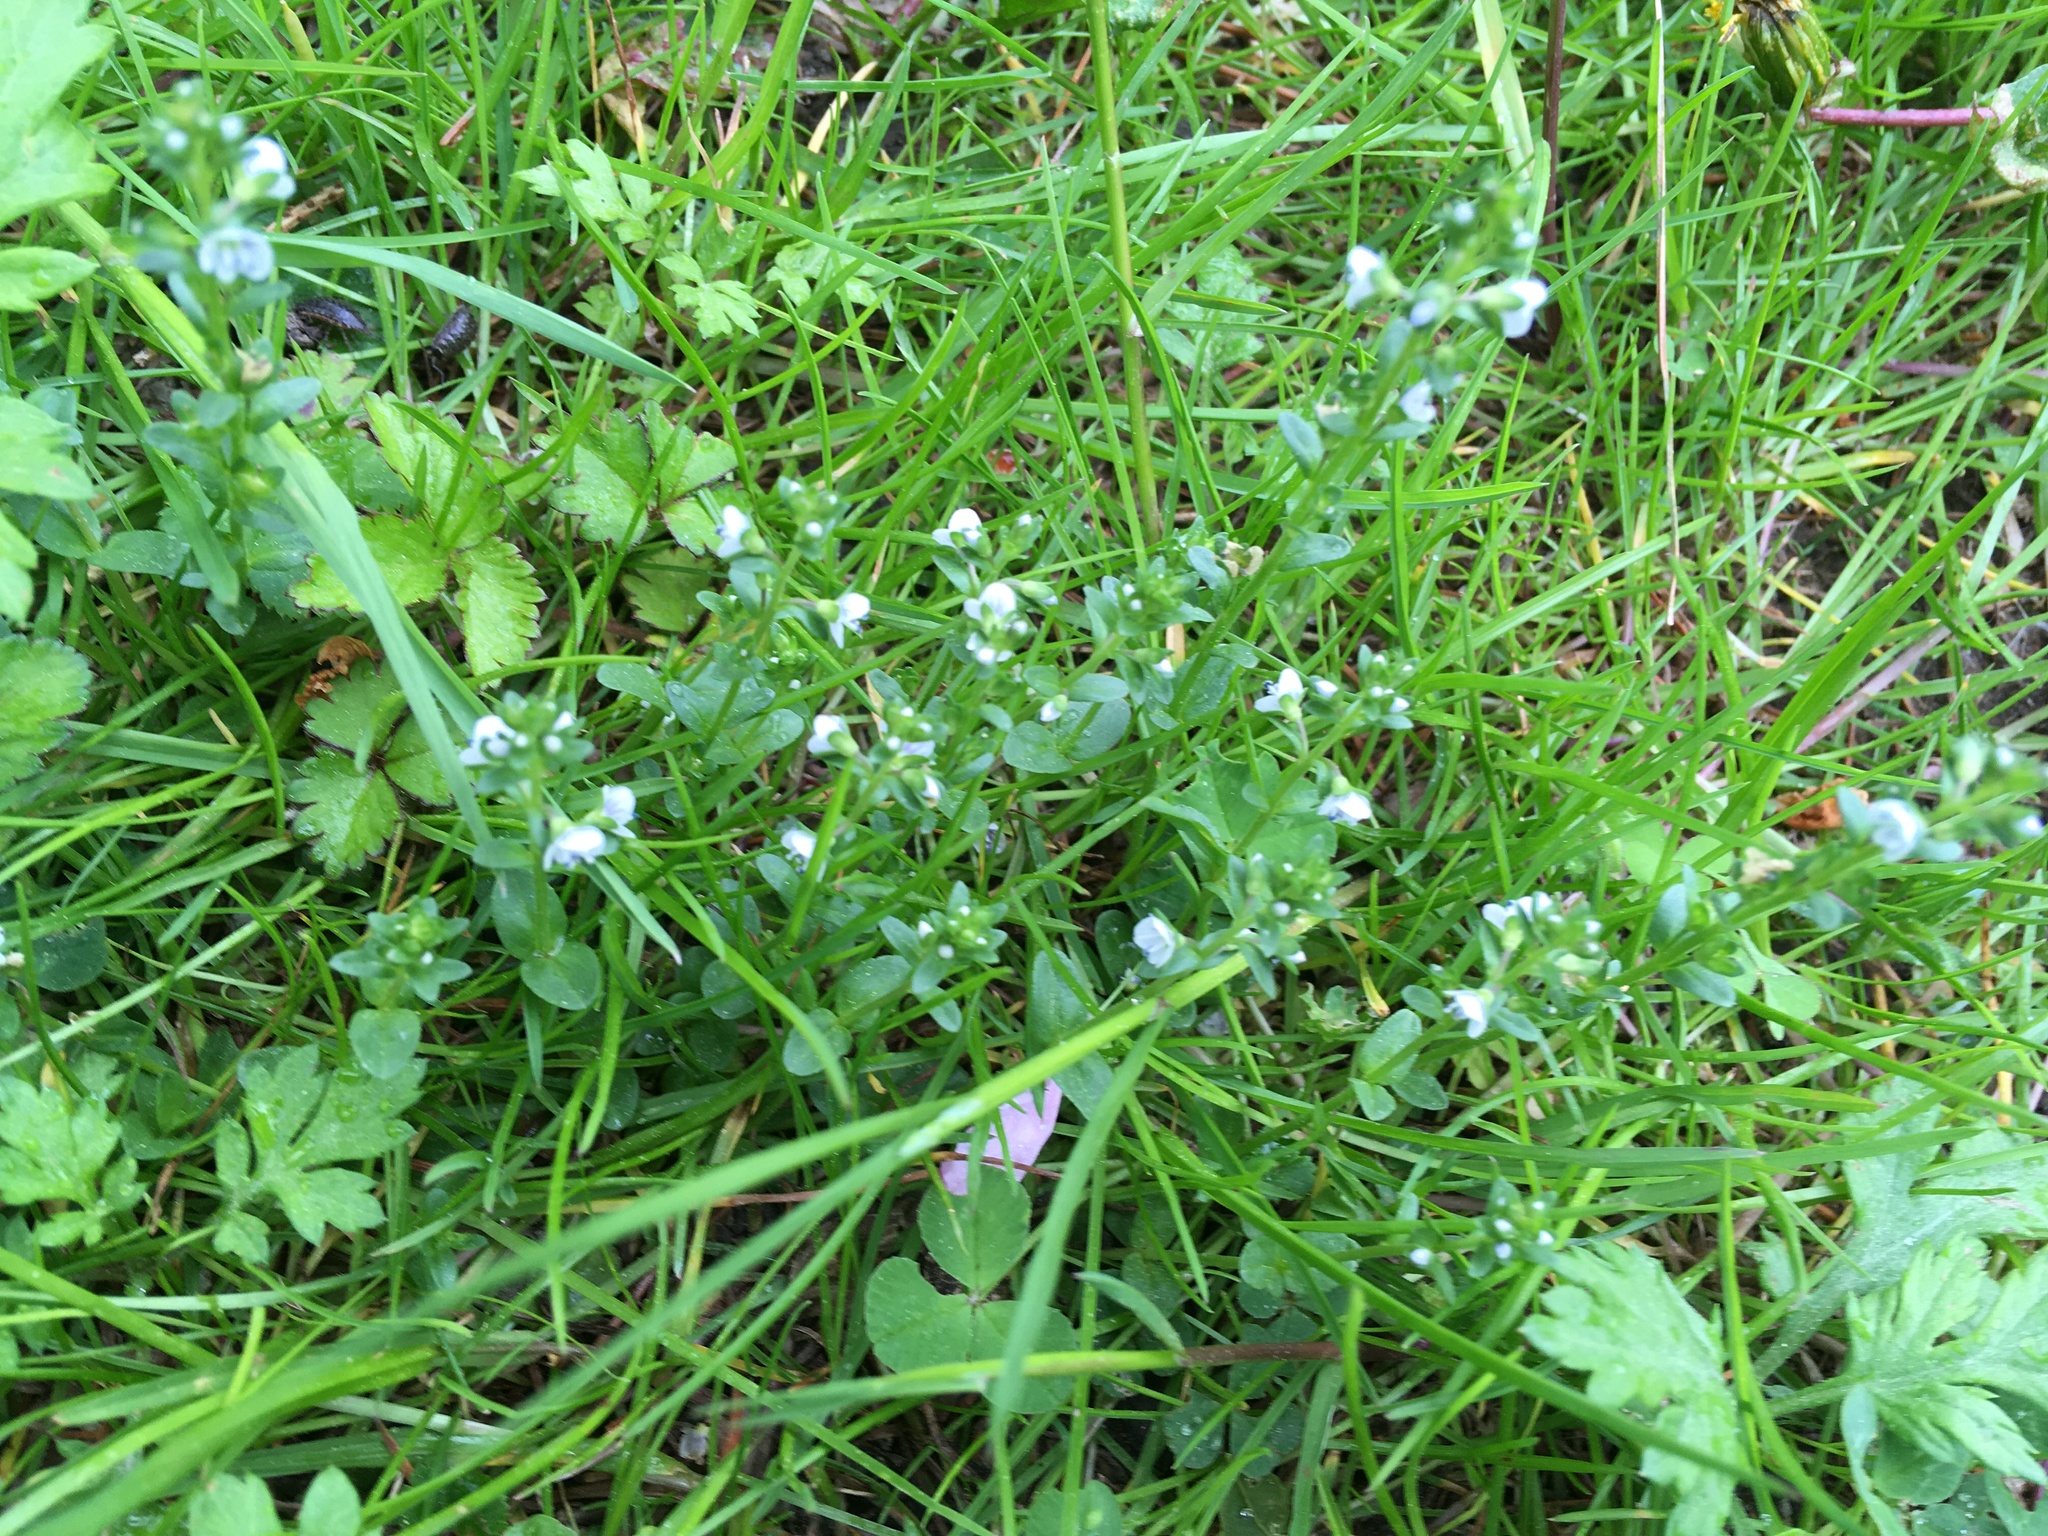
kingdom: Plantae
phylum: Tracheophyta
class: Magnoliopsida
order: Lamiales
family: Plantaginaceae
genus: Veronica
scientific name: Veronica serpyllifolia
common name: Thyme-leaved speedwell
